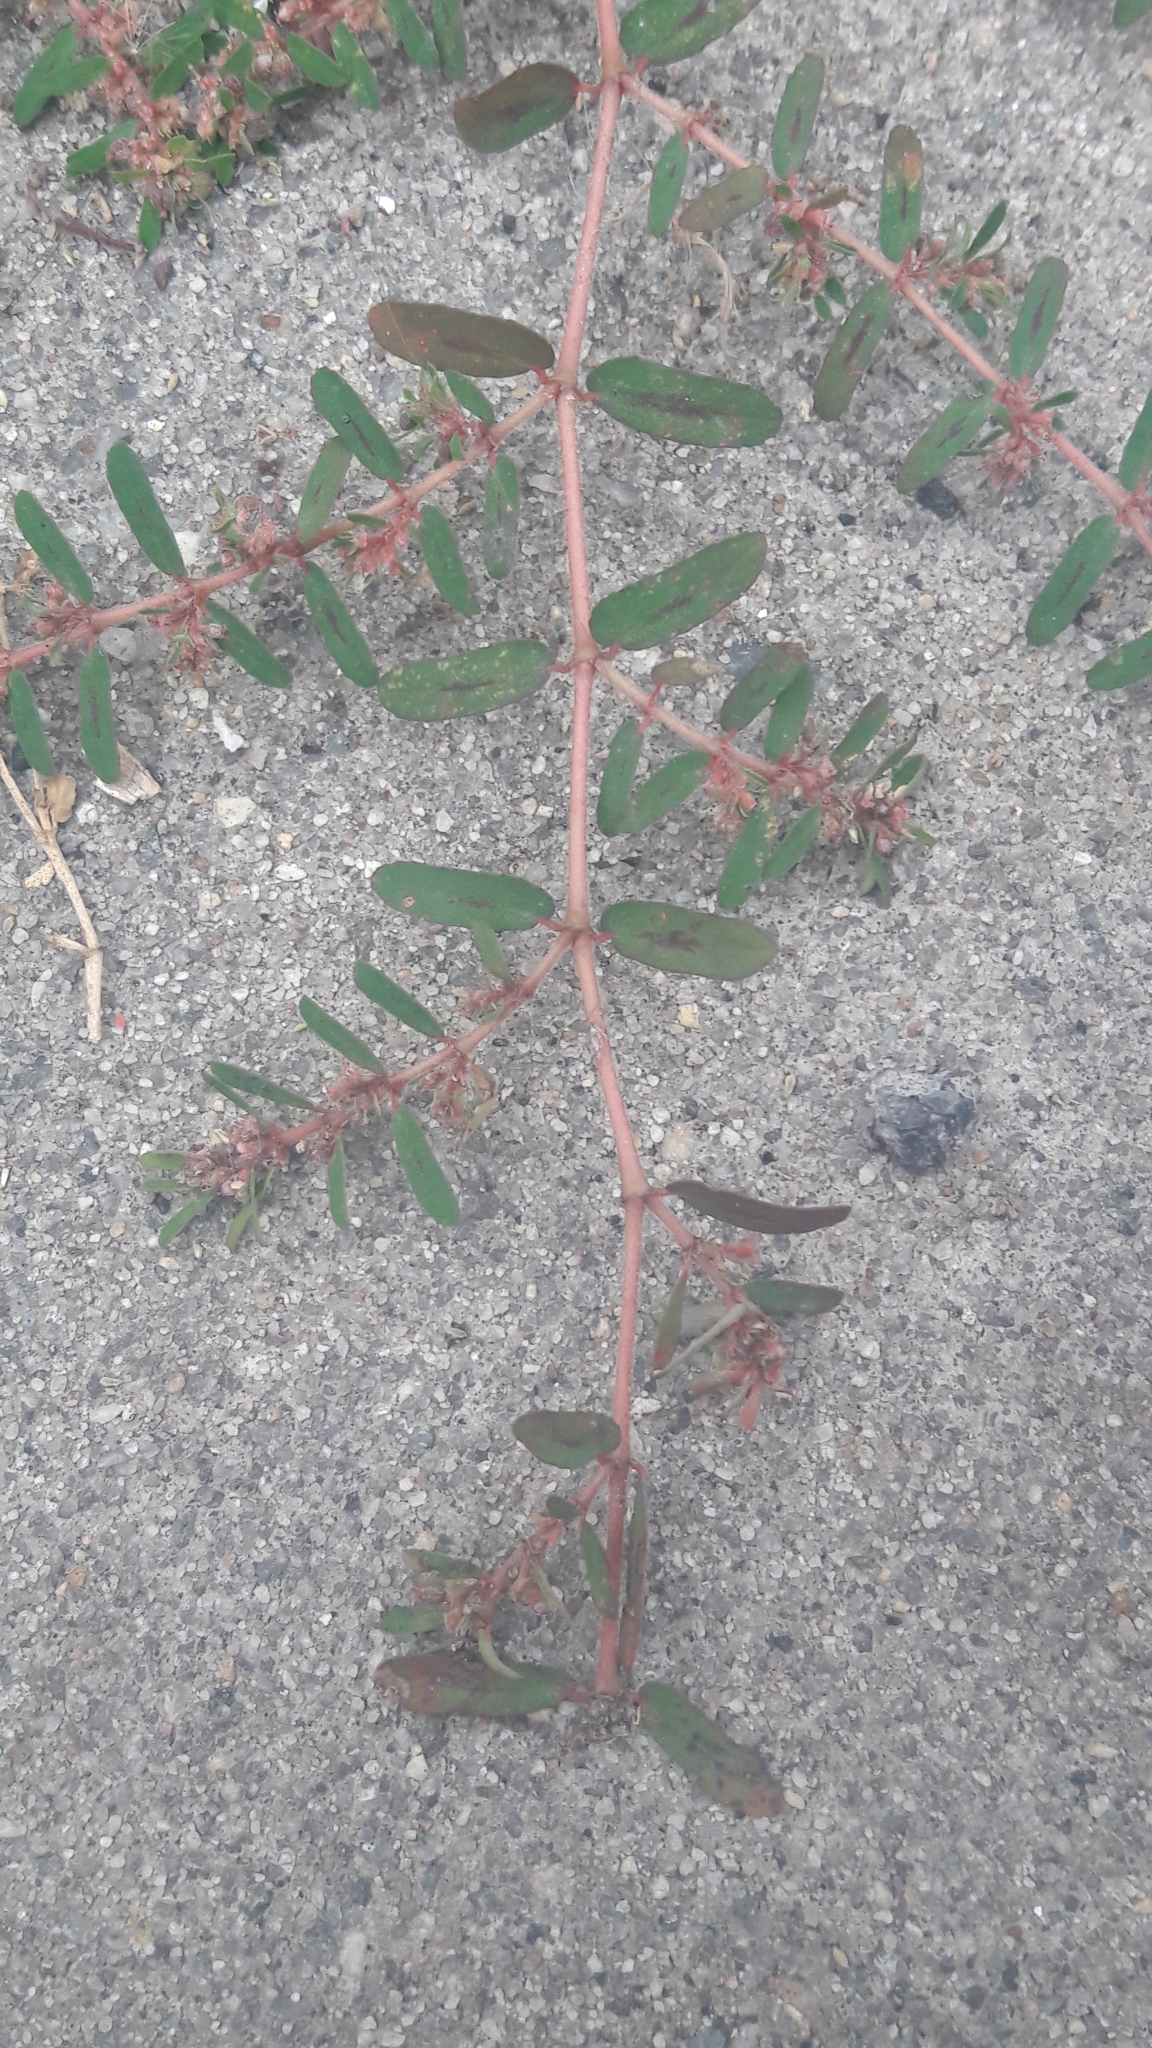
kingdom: Plantae
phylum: Tracheophyta
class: Magnoliopsida
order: Malpighiales
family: Euphorbiaceae
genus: Euphorbia
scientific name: Euphorbia maculata
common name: Spotted spurge
